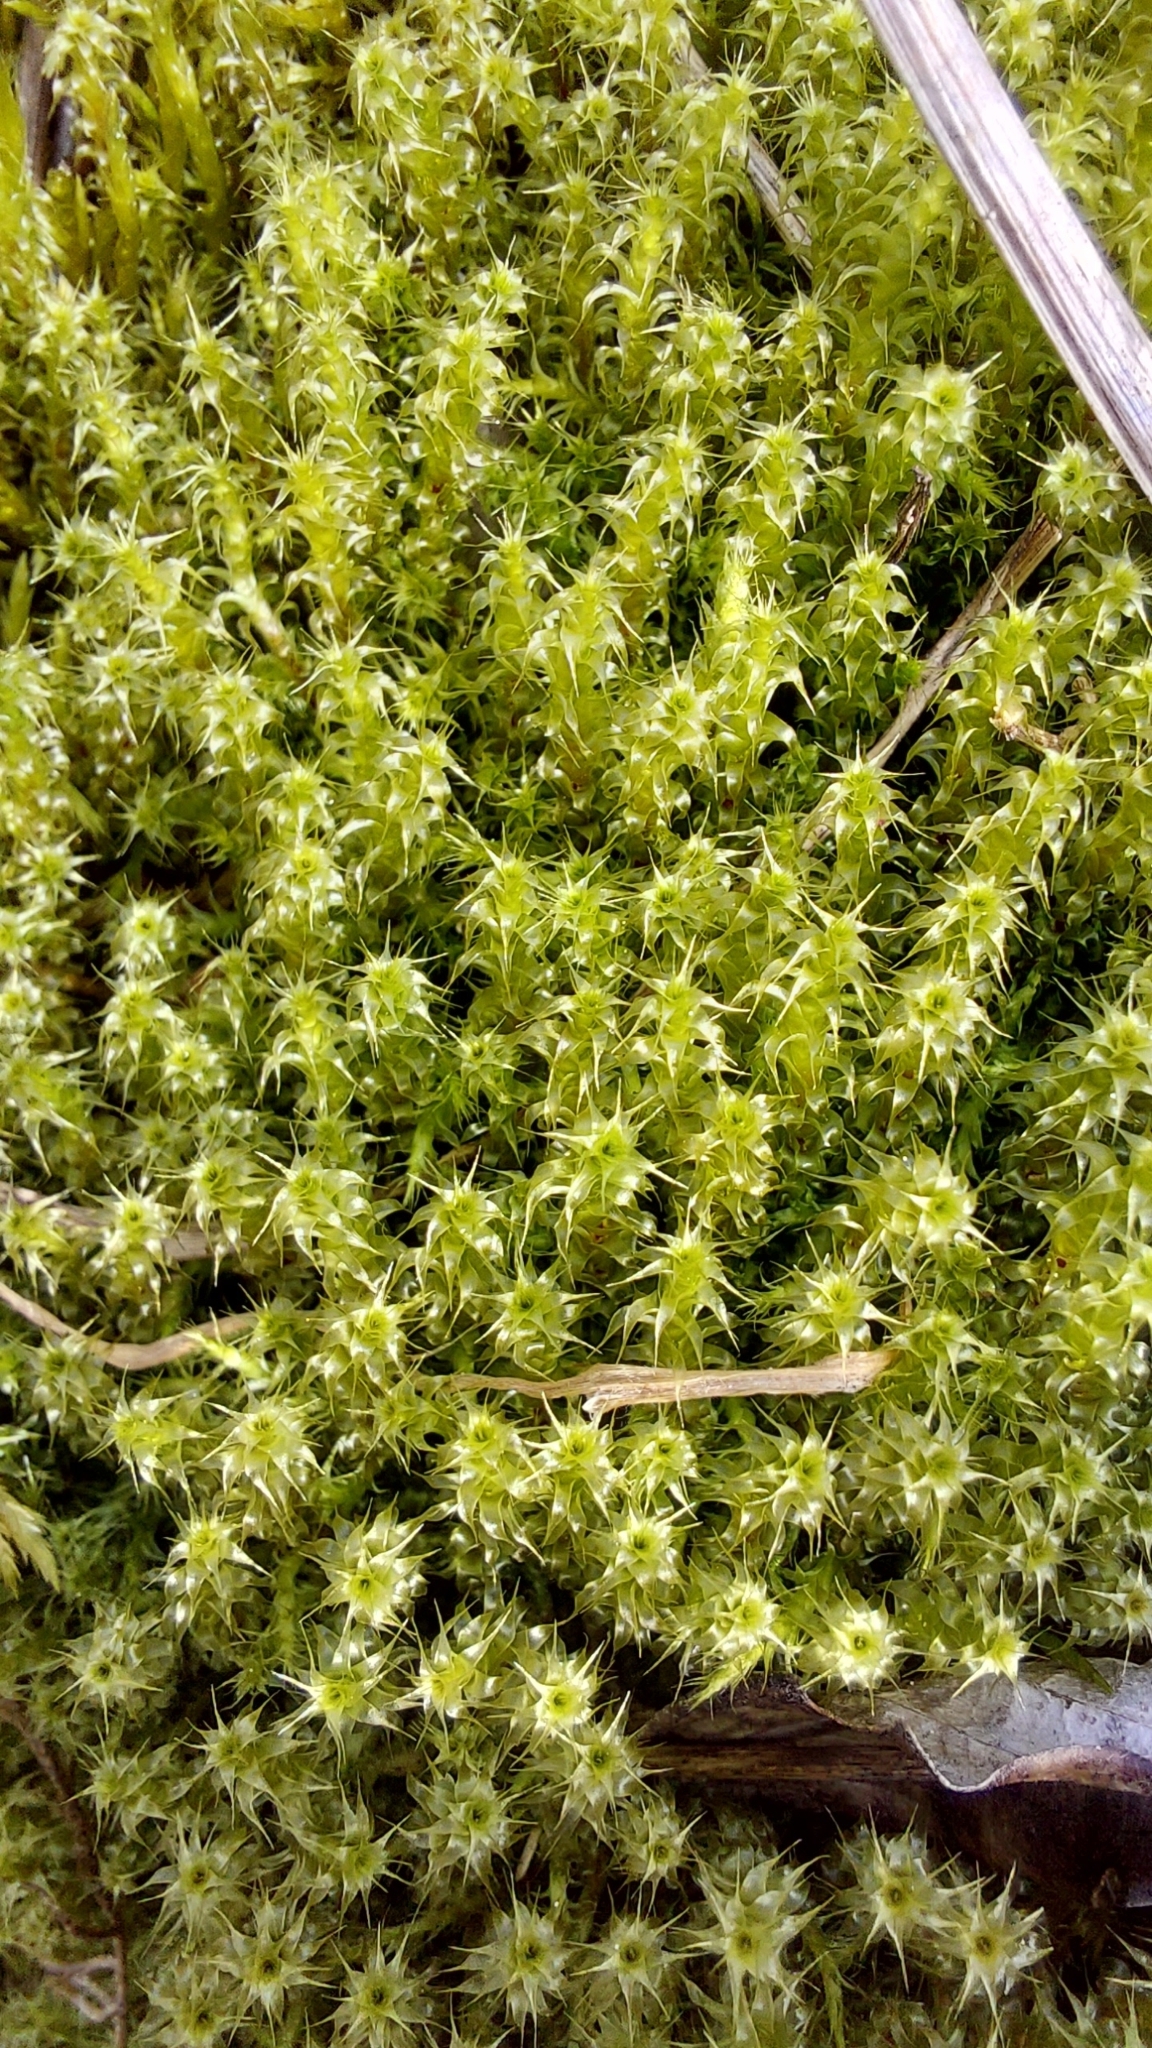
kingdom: Plantae
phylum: Bryophyta
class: Bryopsida
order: Hypnales
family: Hylocomiaceae
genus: Rhytidiadelphus
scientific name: Rhytidiadelphus squarrosus
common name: Springy turf-moss
